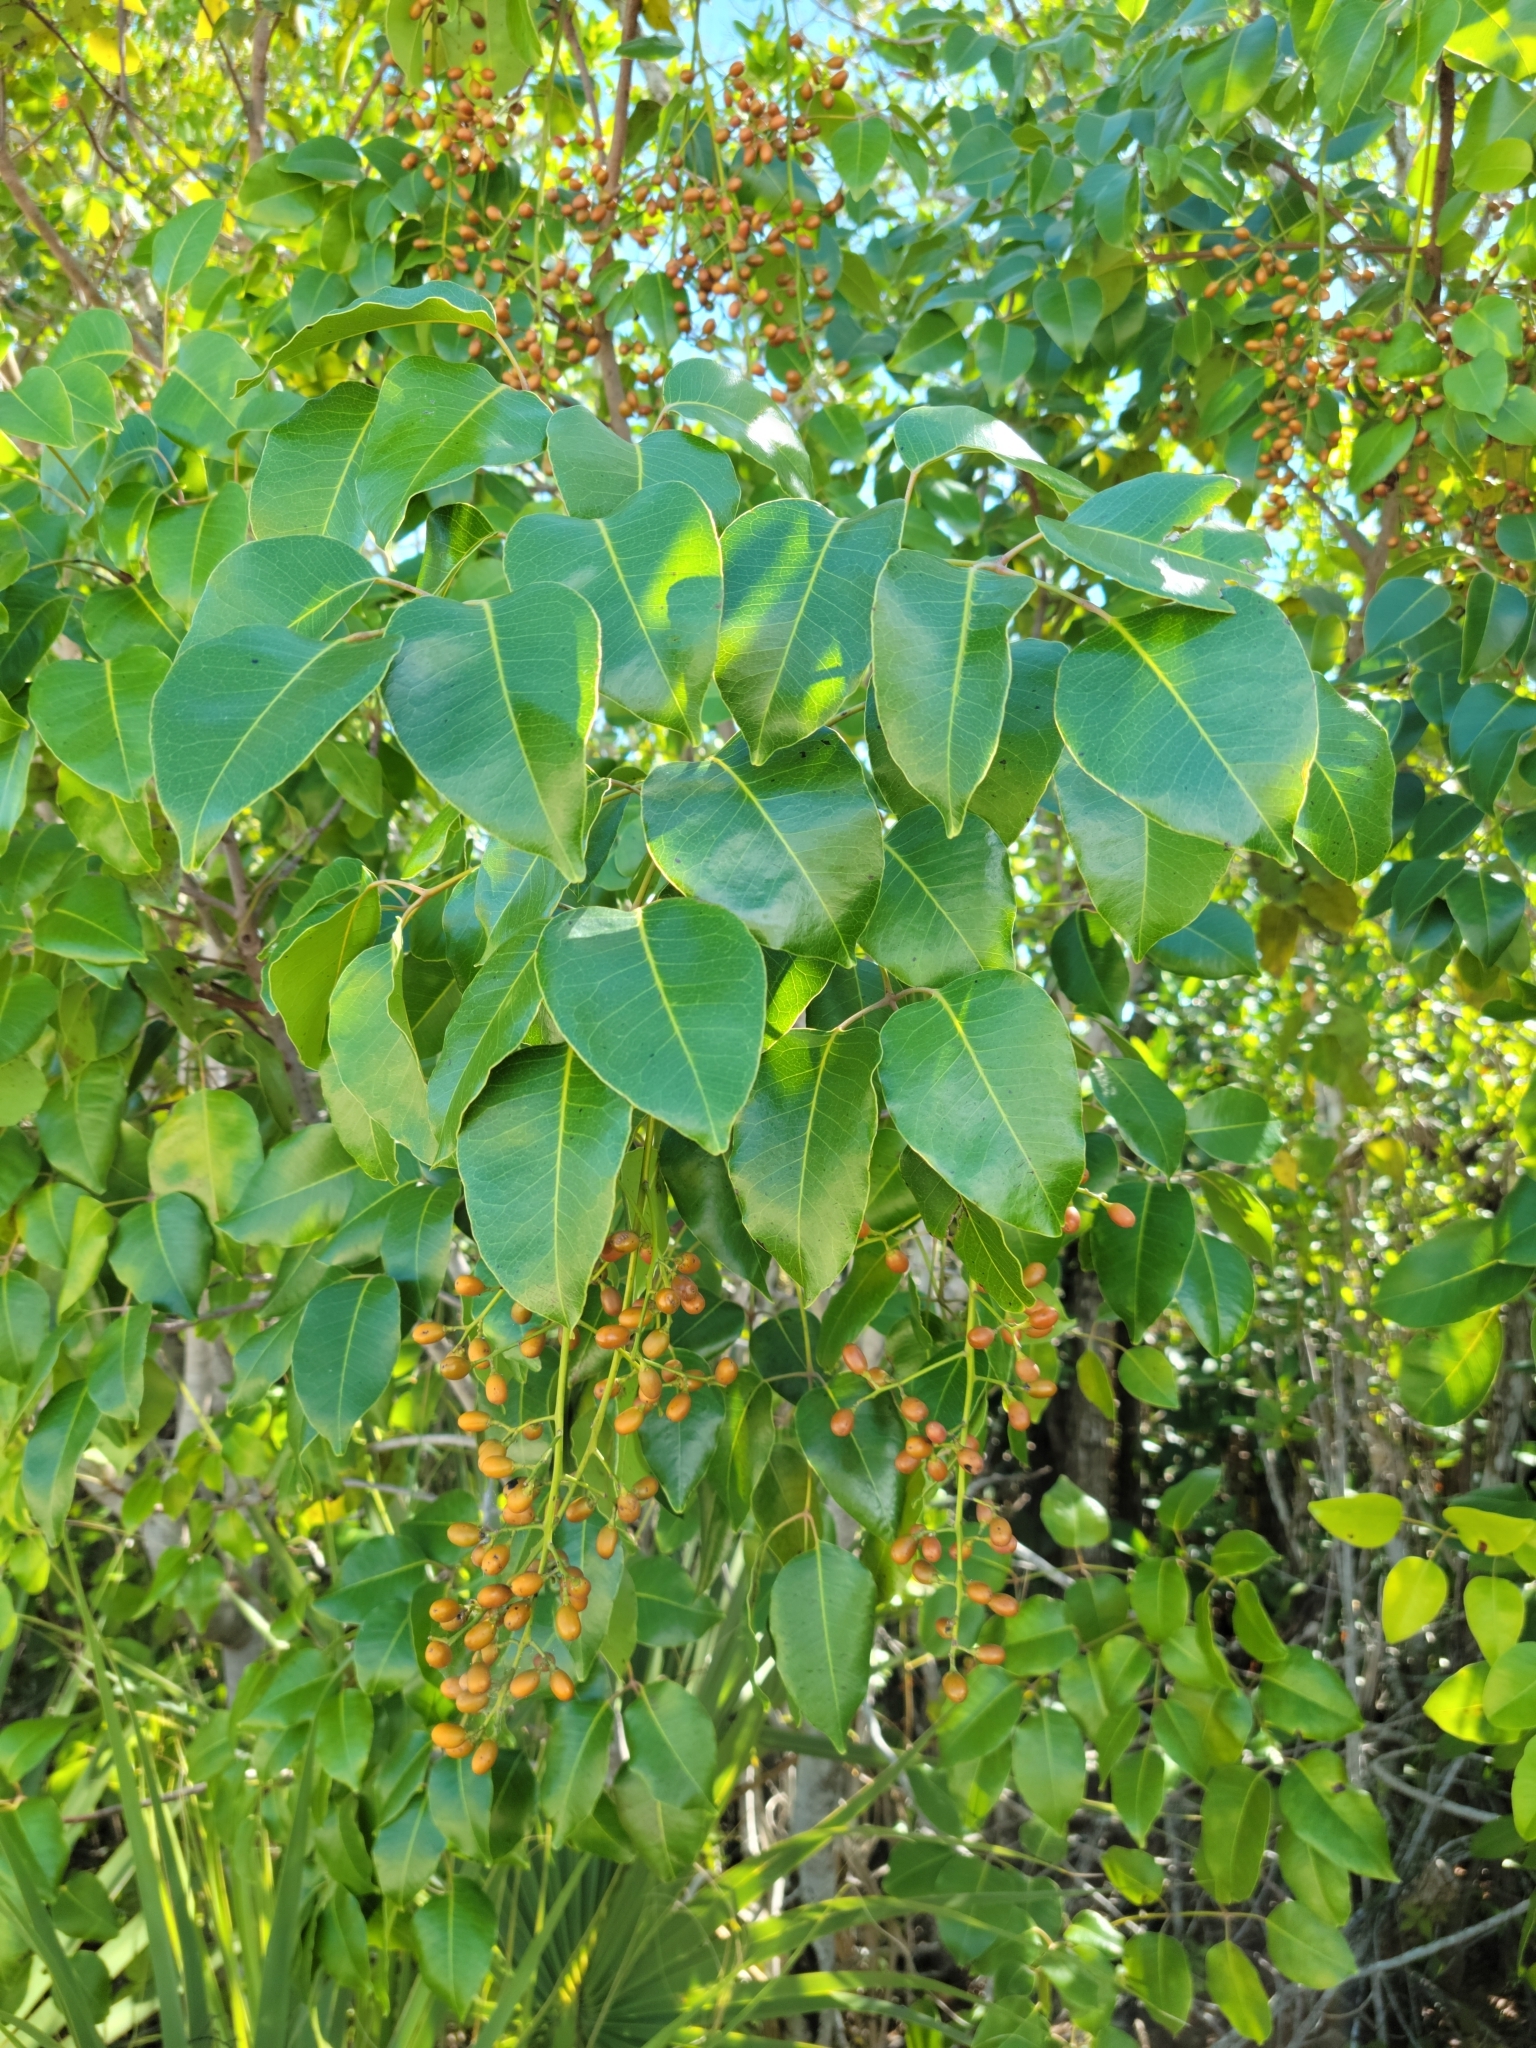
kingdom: Plantae
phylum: Tracheophyta
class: Magnoliopsida
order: Sapindales
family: Anacardiaceae
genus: Metopium
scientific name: Metopium toxiferum
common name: Florida poisontree
